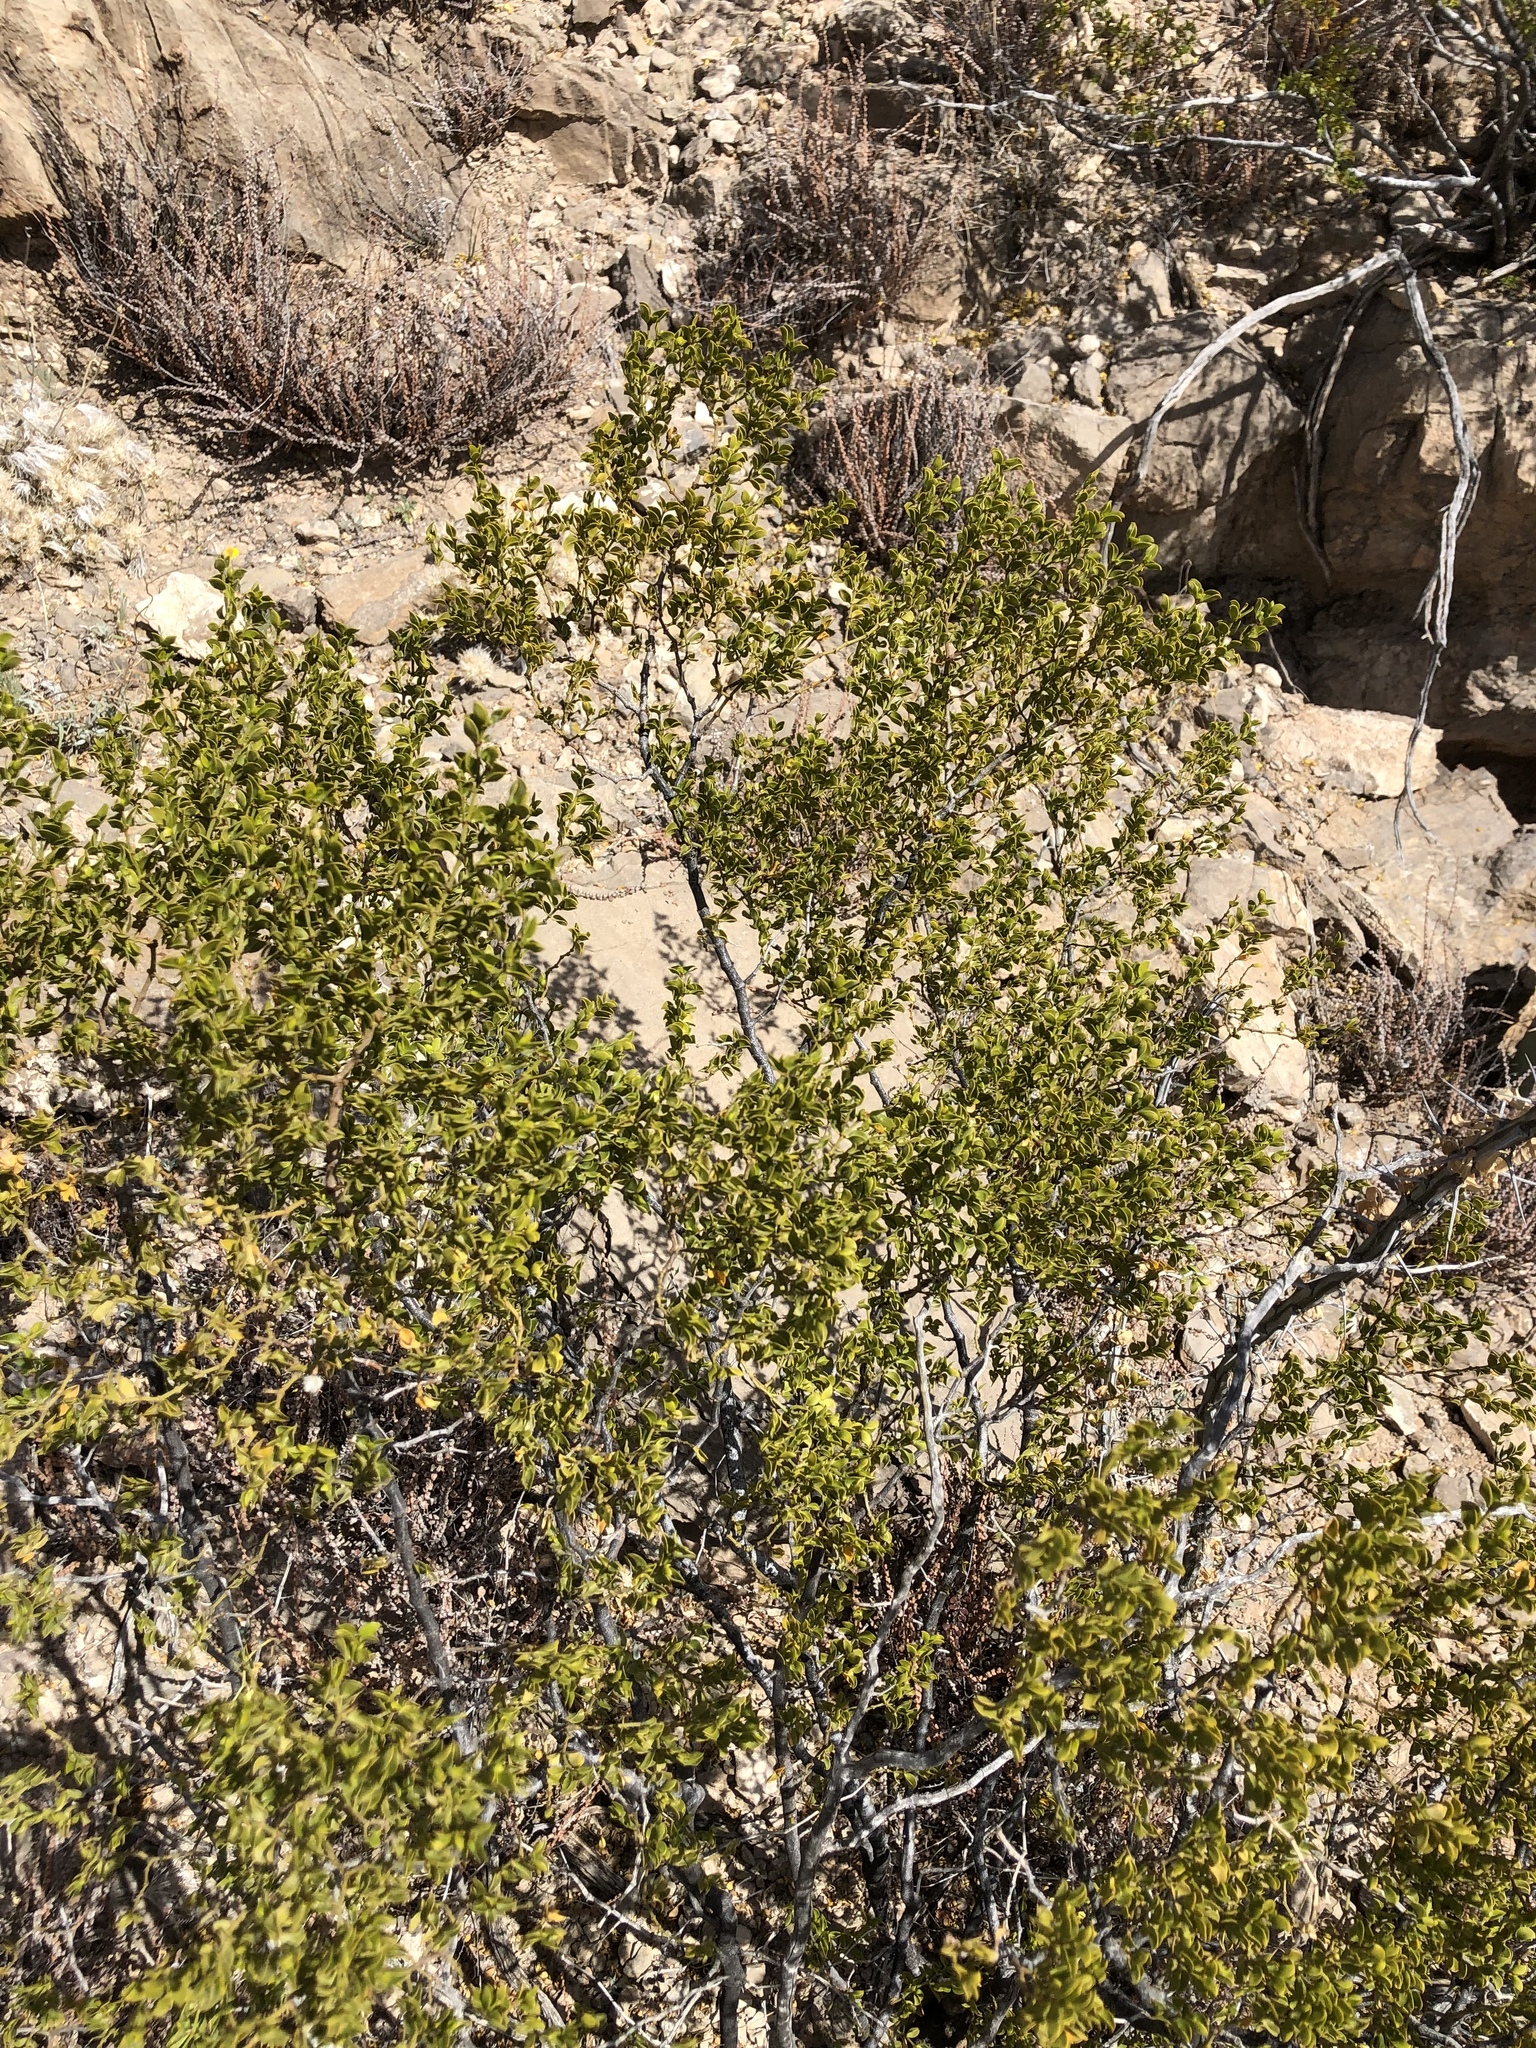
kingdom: Plantae
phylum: Tracheophyta
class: Magnoliopsida
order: Zygophyllales
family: Zygophyllaceae
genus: Larrea
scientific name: Larrea tridentata
